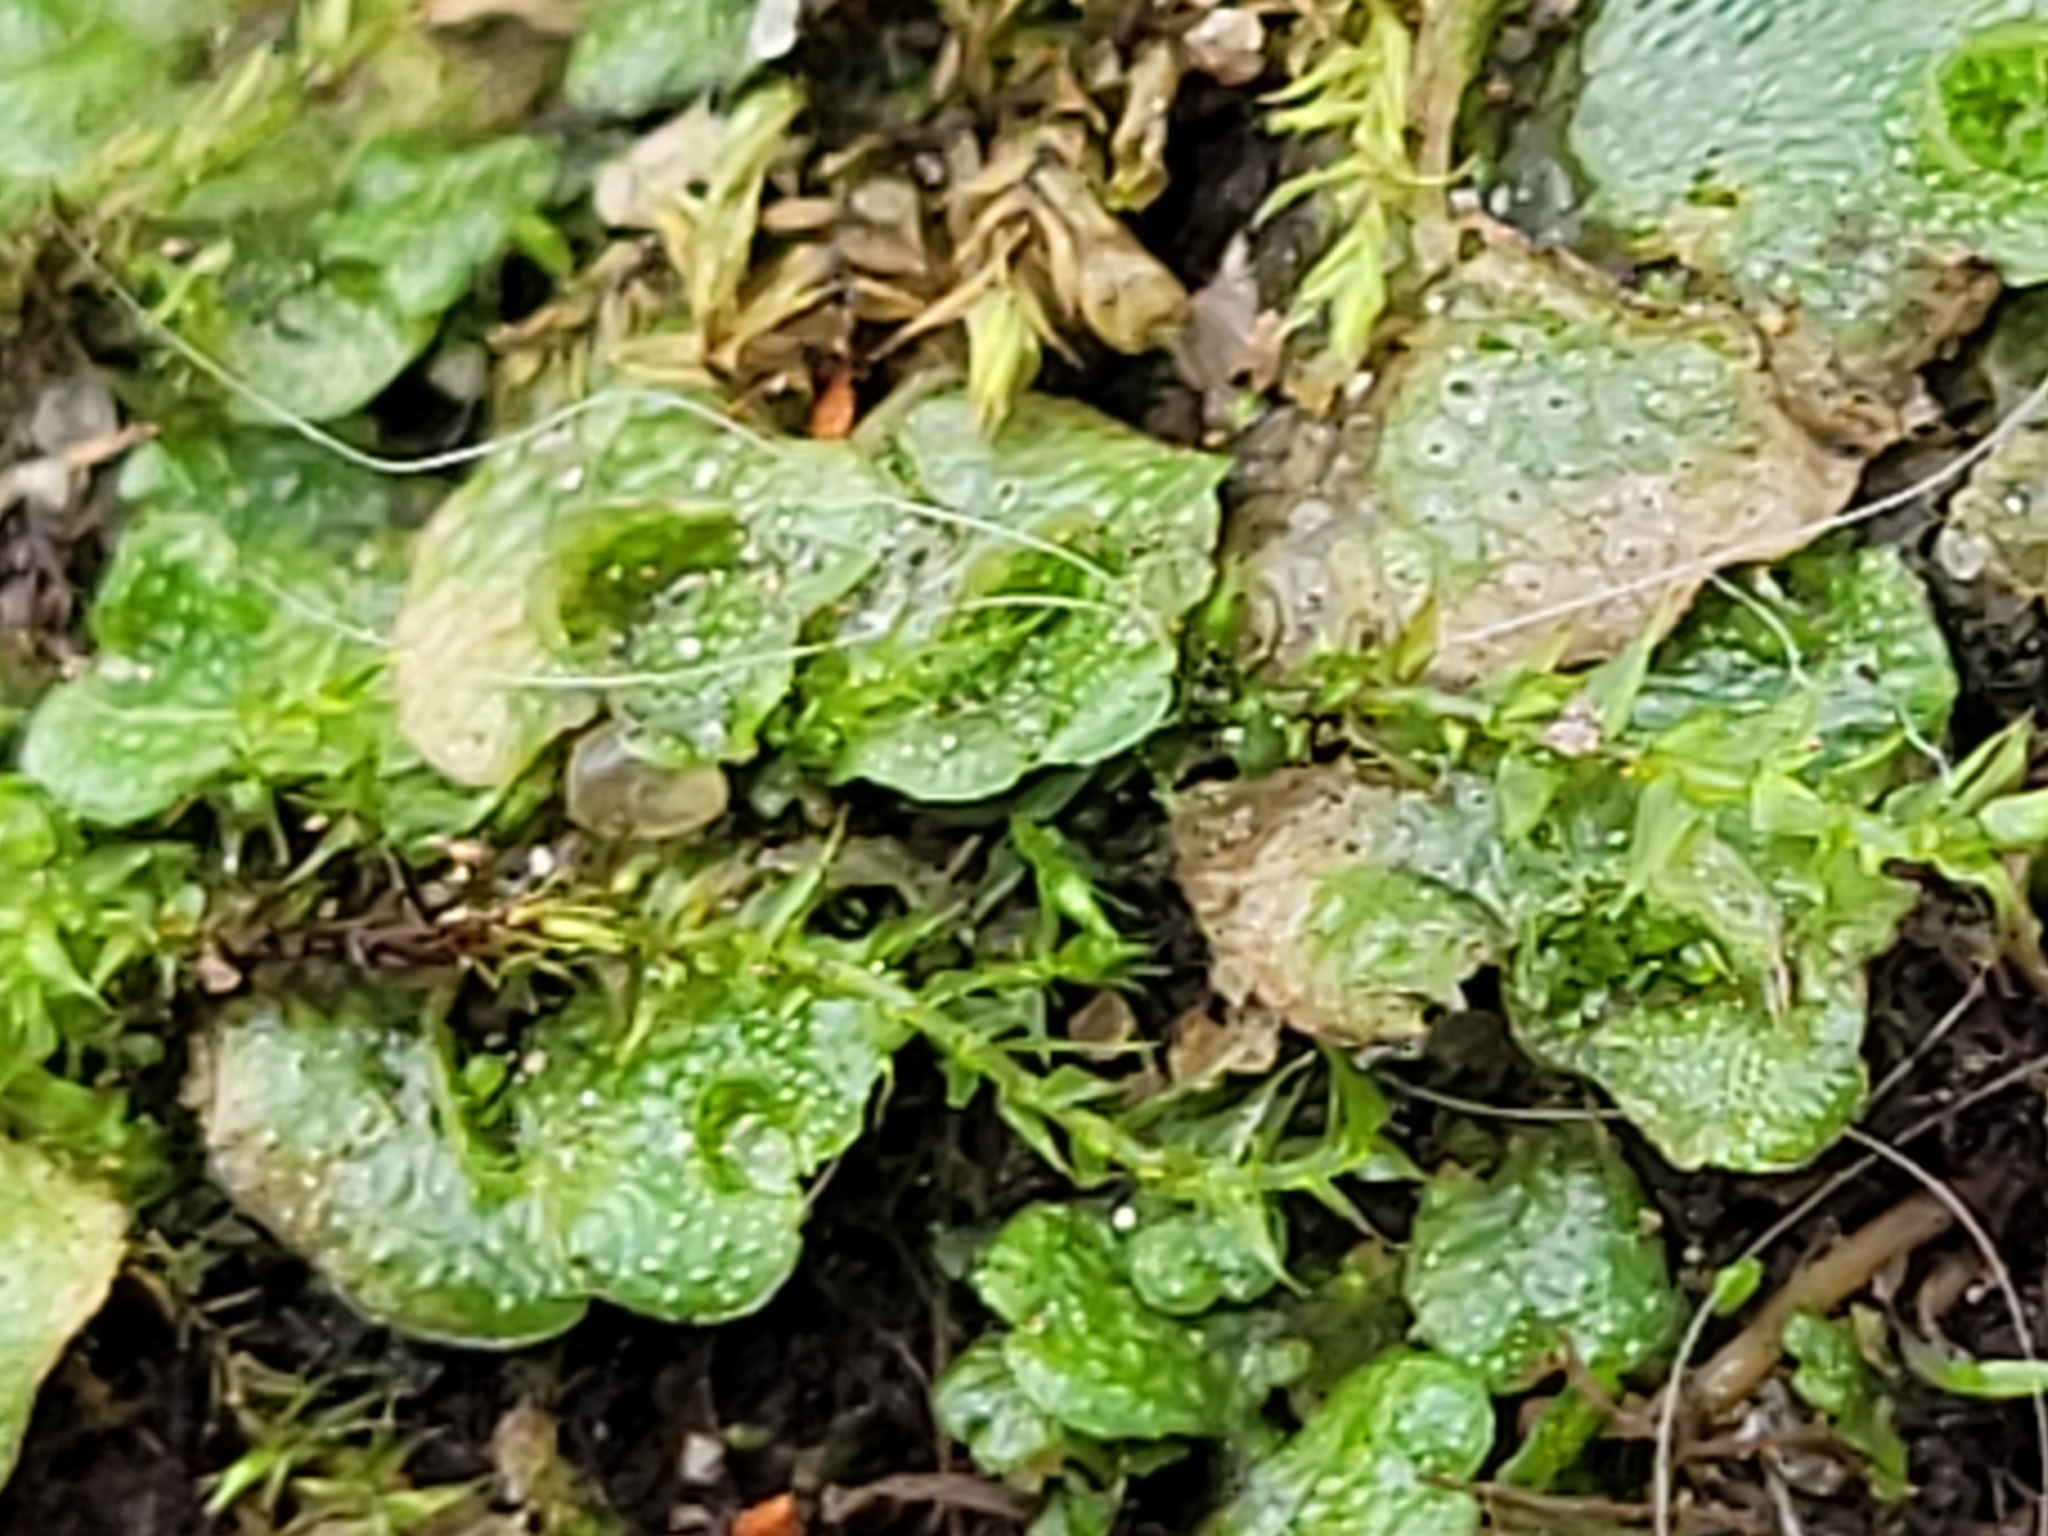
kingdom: Plantae
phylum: Marchantiophyta
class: Marchantiopsida
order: Lunulariales
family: Lunulariaceae
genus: Lunularia
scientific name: Lunularia cruciata
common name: Crescent-cup liverwort
